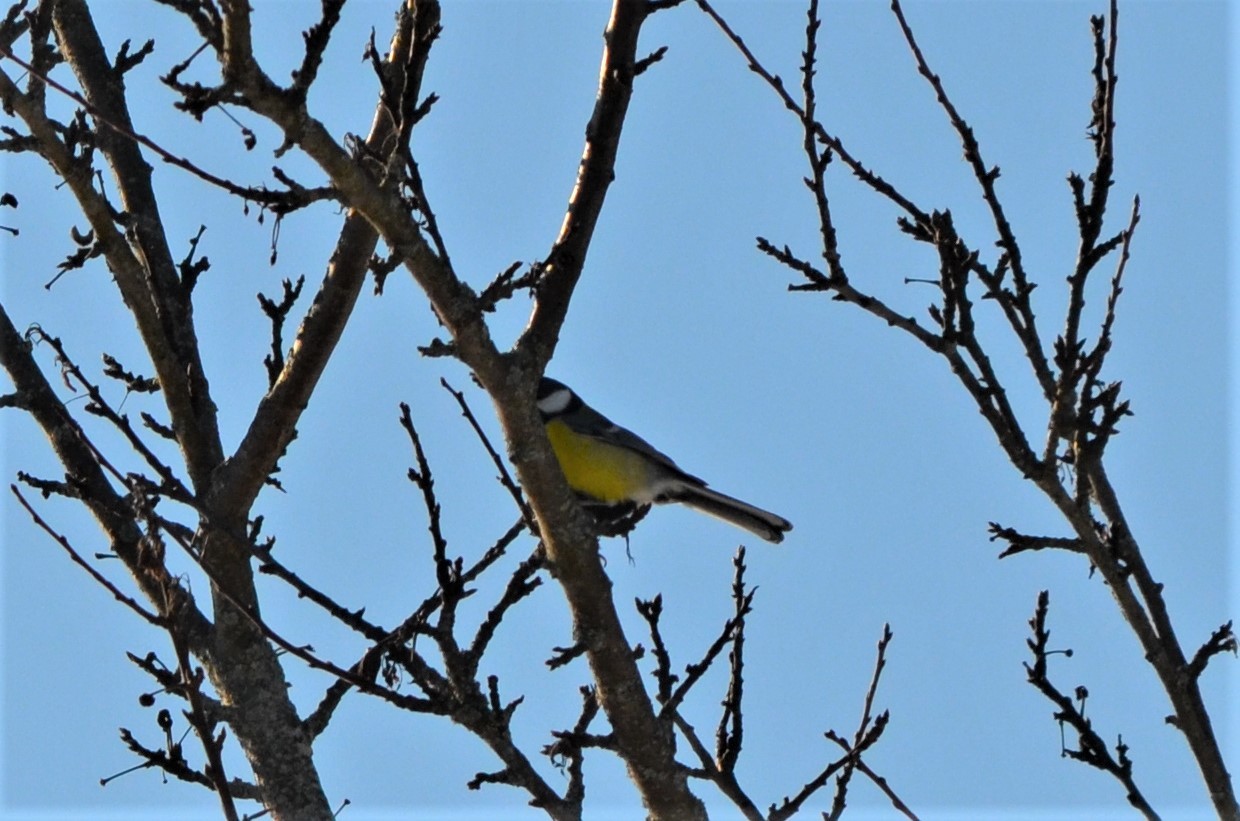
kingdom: Animalia
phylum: Chordata
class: Aves
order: Passeriformes
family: Paridae
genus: Parus
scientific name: Parus major
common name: Great tit
